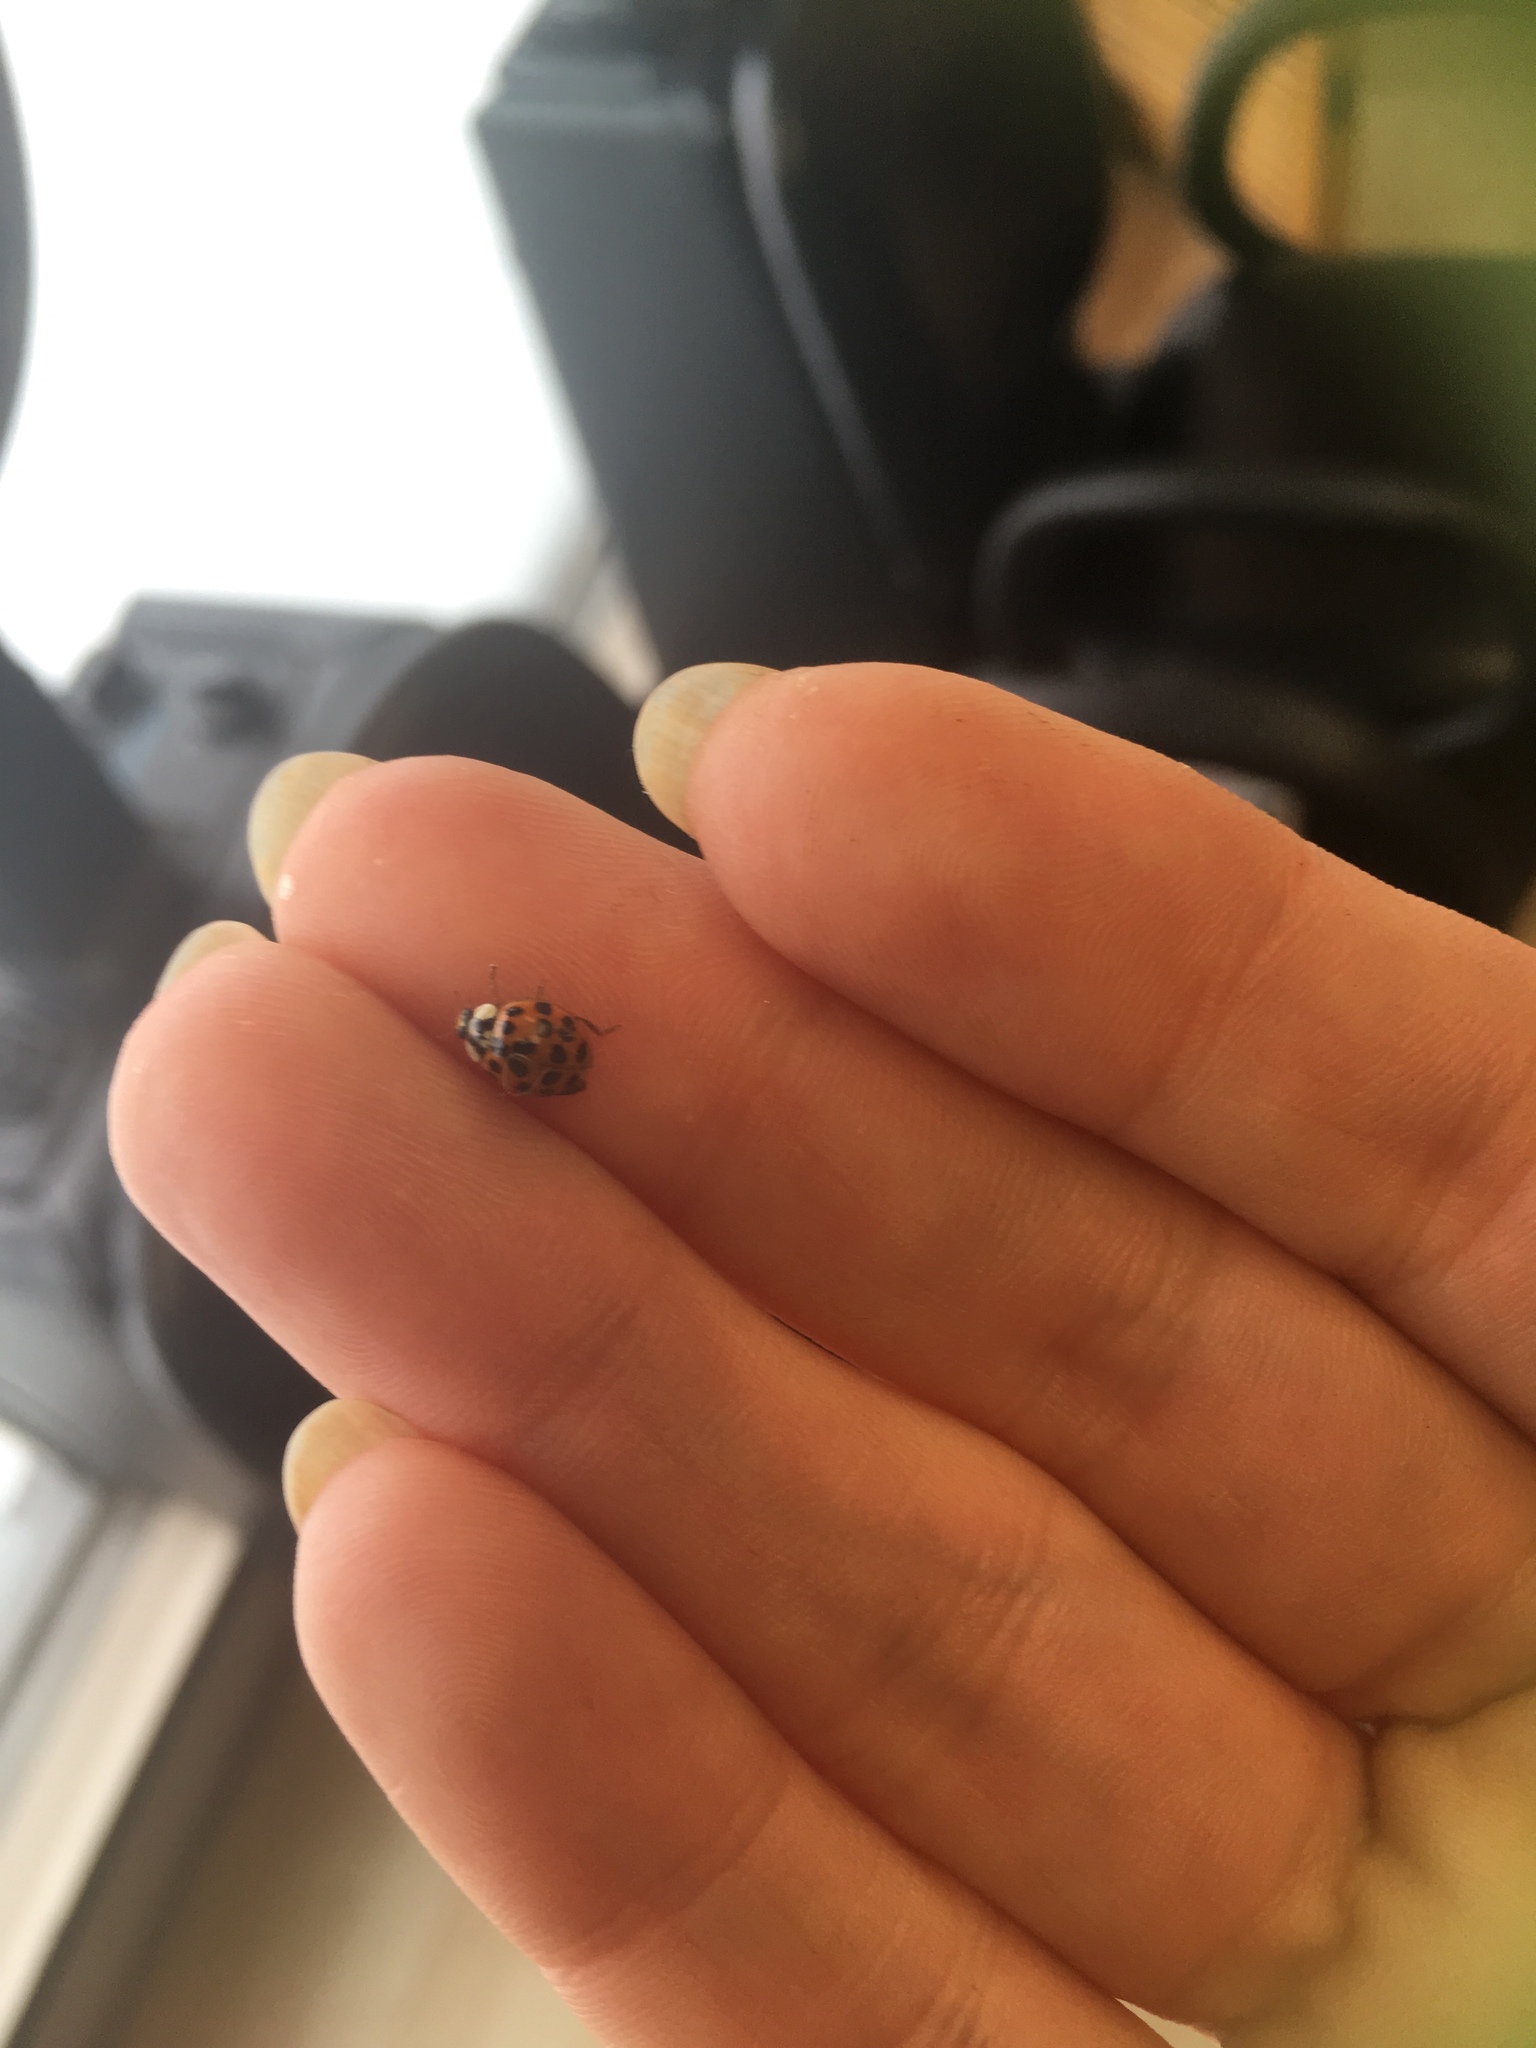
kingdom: Animalia
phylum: Arthropoda
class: Insecta
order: Coleoptera
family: Coccinellidae
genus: Harmonia
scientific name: Harmonia axyridis
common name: Harlequin ladybird
